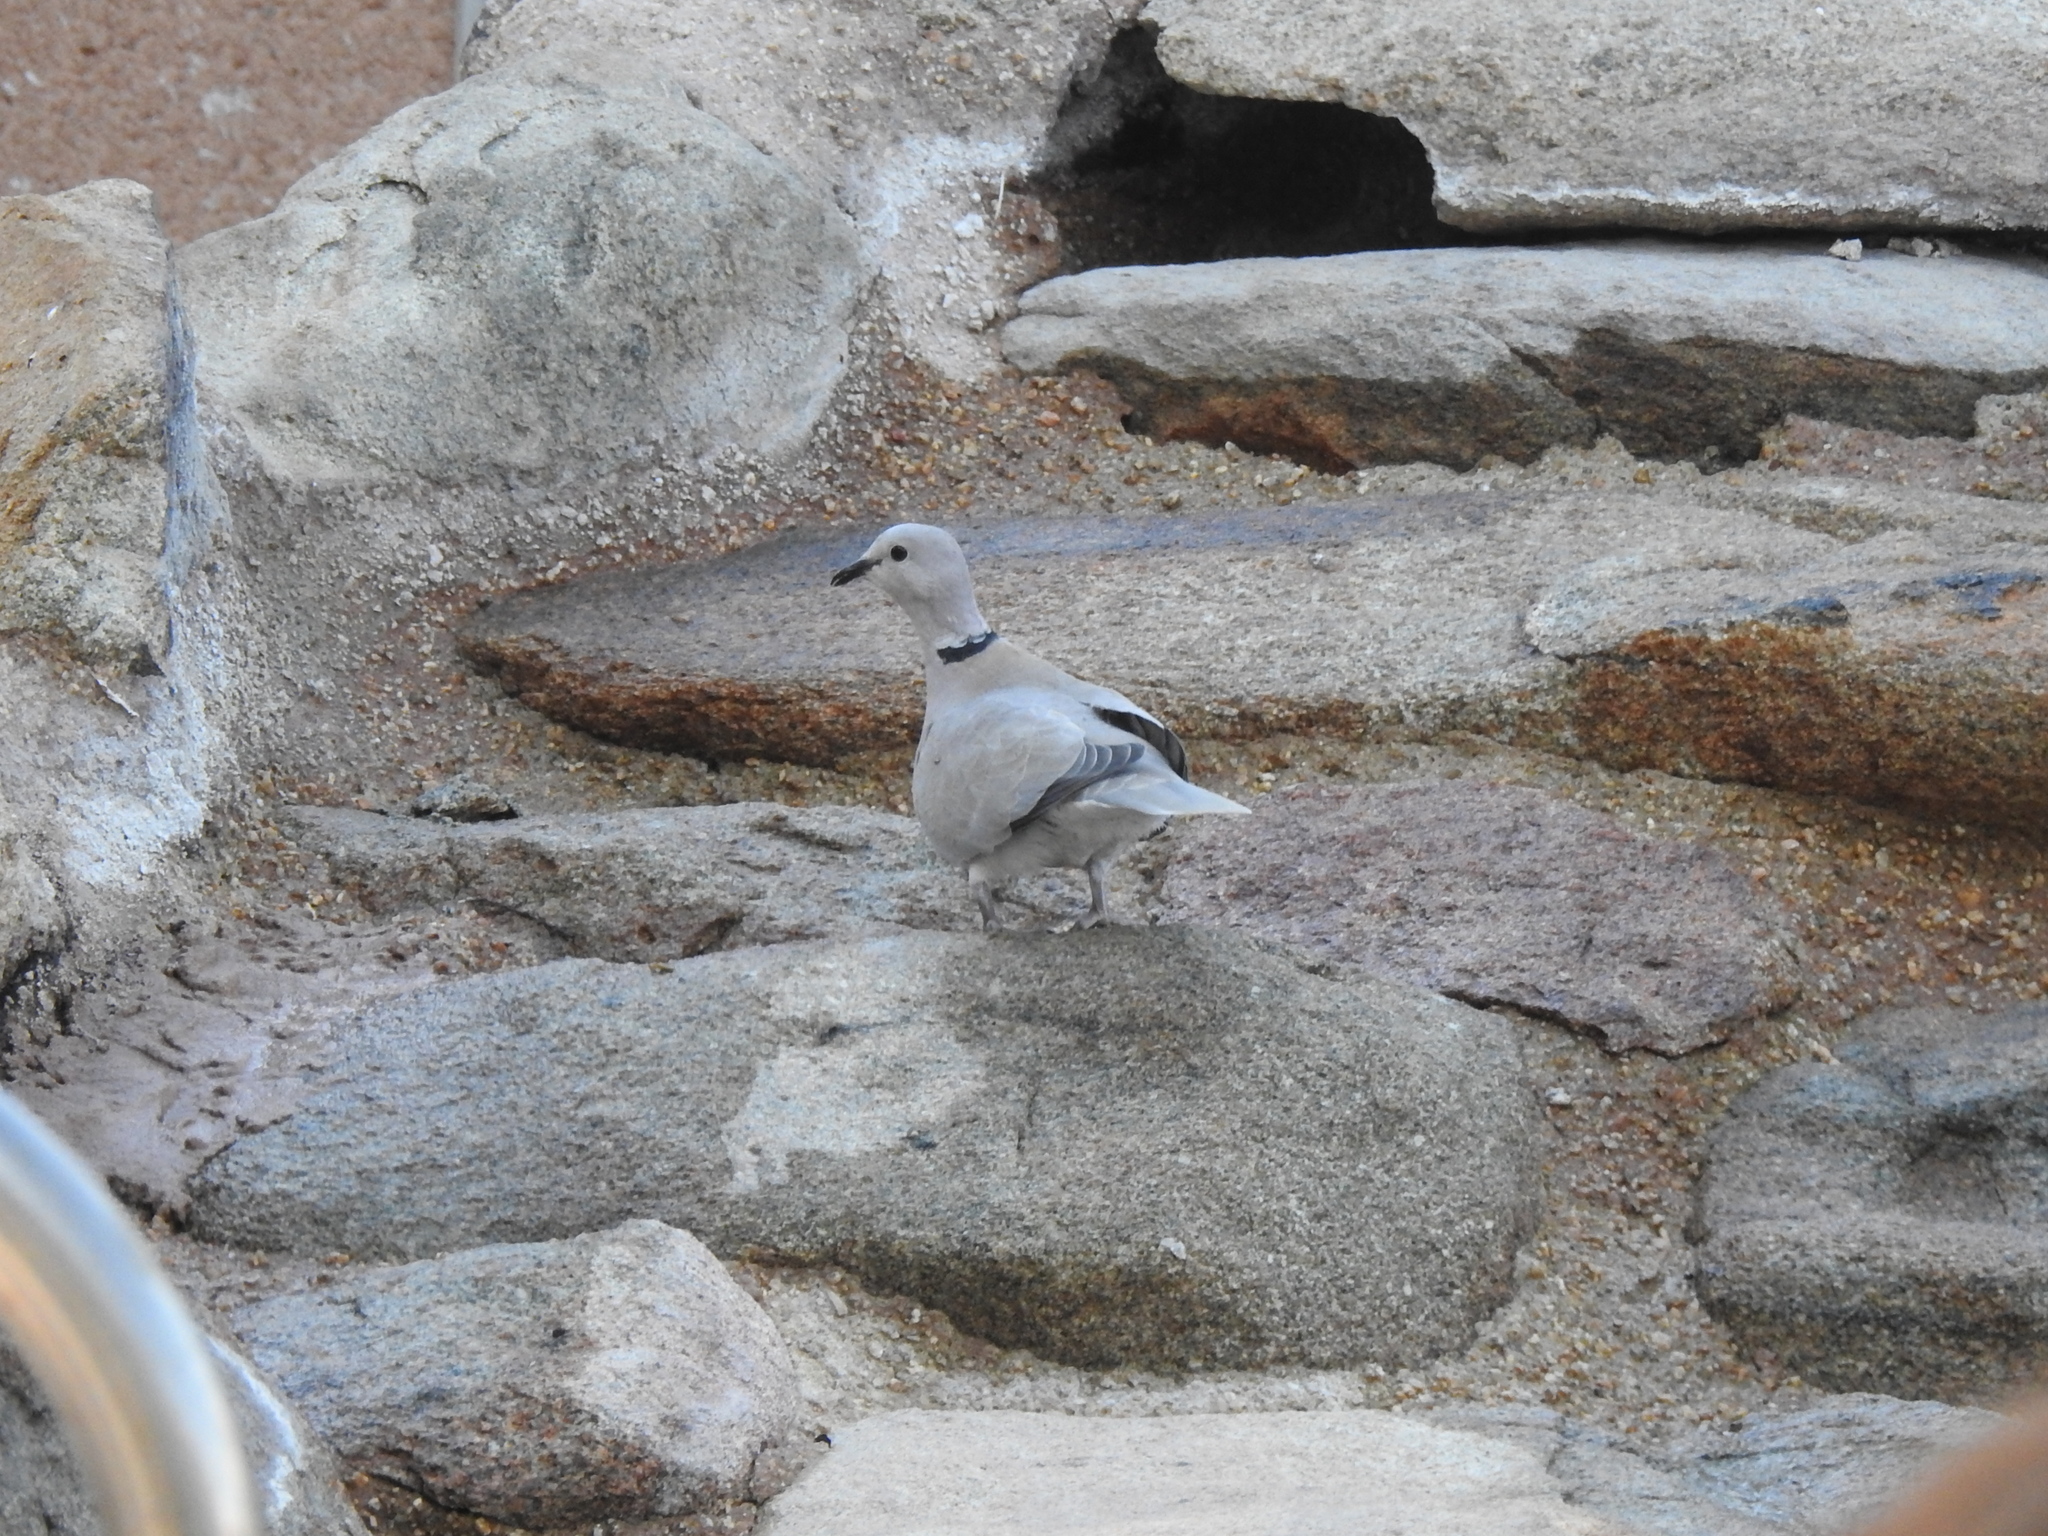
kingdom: Animalia
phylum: Chordata
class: Aves
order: Columbiformes
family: Columbidae
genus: Streptopelia
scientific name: Streptopelia decaocto
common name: Eurasian collared dove
